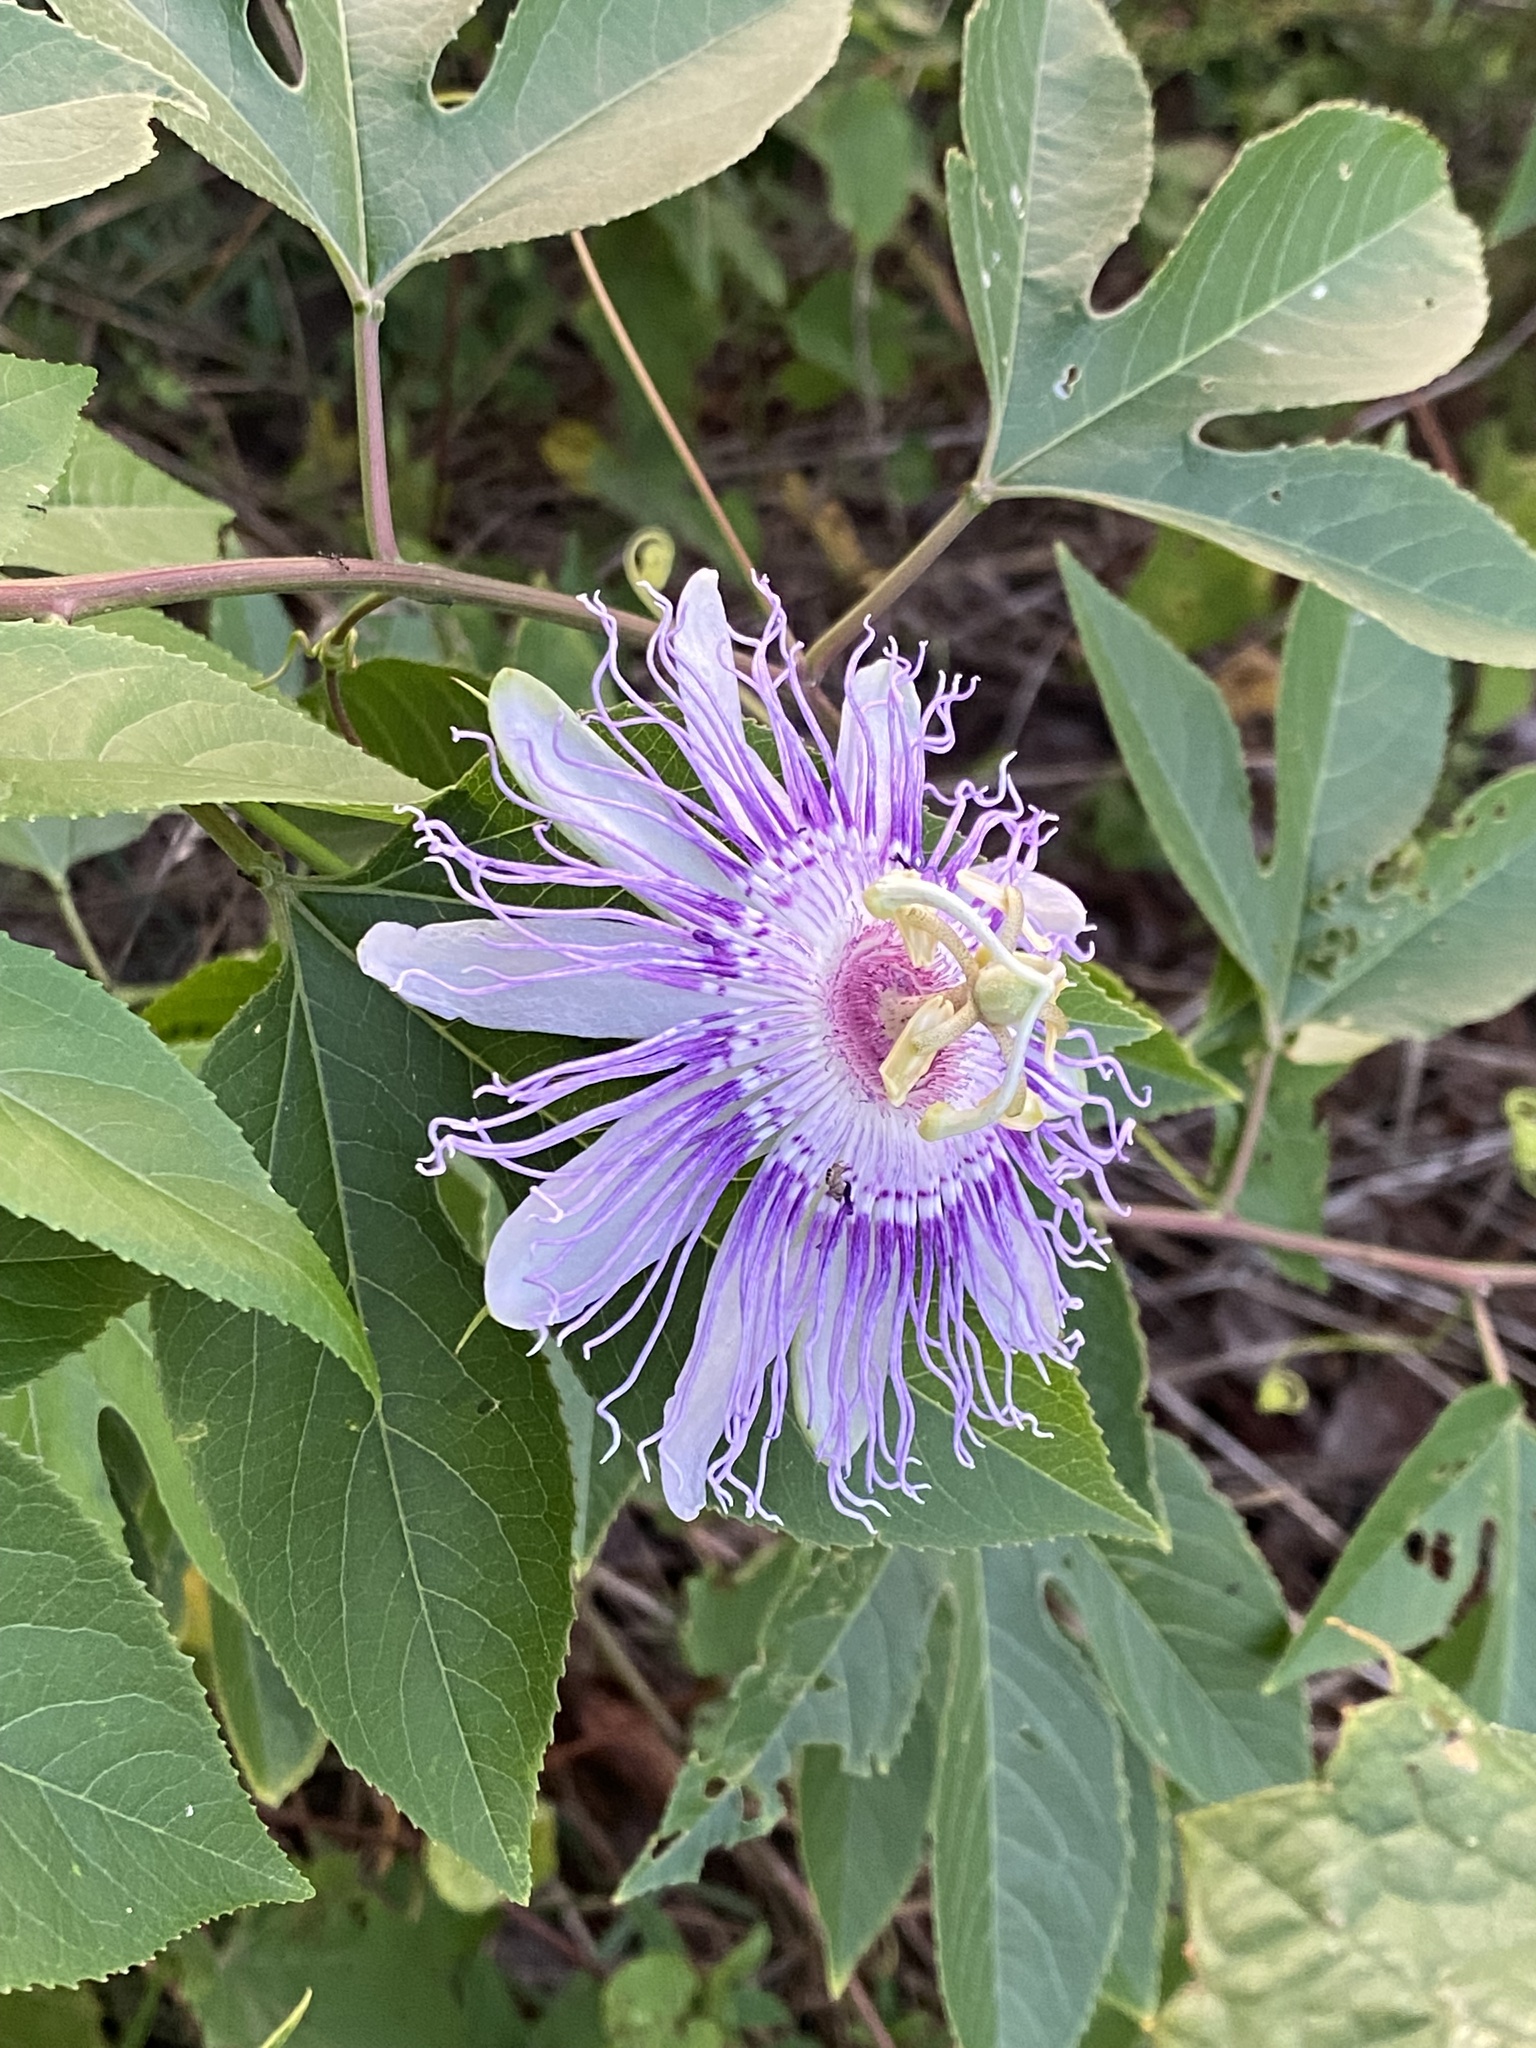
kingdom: Plantae
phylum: Tracheophyta
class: Magnoliopsida
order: Malpighiales
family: Passifloraceae
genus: Passiflora
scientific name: Passiflora incarnata
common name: Apricot-vine
